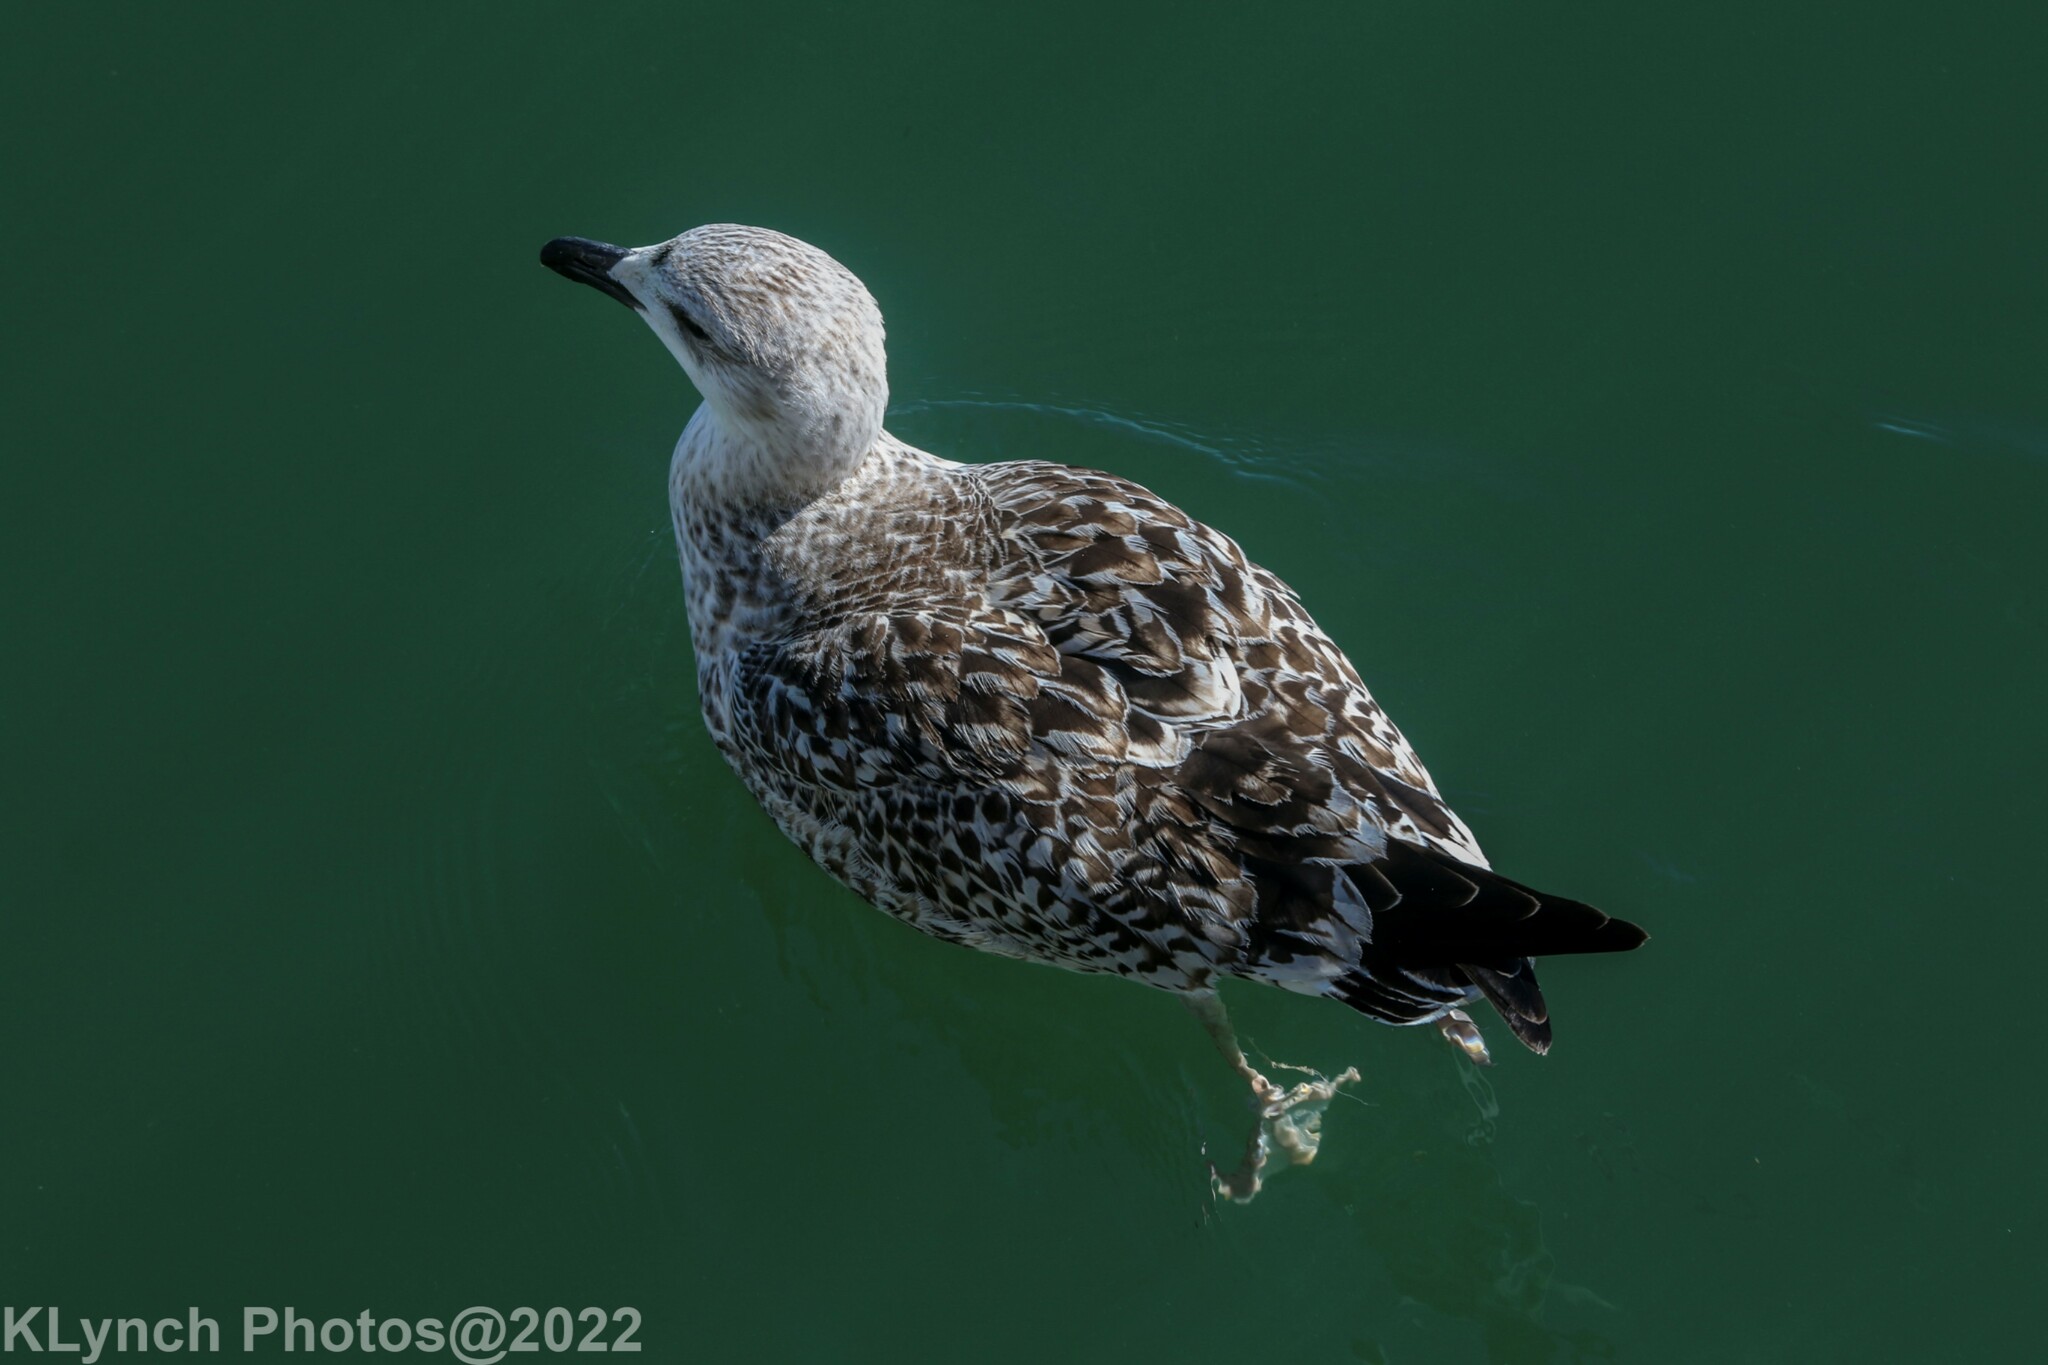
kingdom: Animalia
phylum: Chordata
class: Aves
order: Charadriiformes
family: Laridae
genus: Larus
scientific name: Larus marinus
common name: Great black-backed gull
